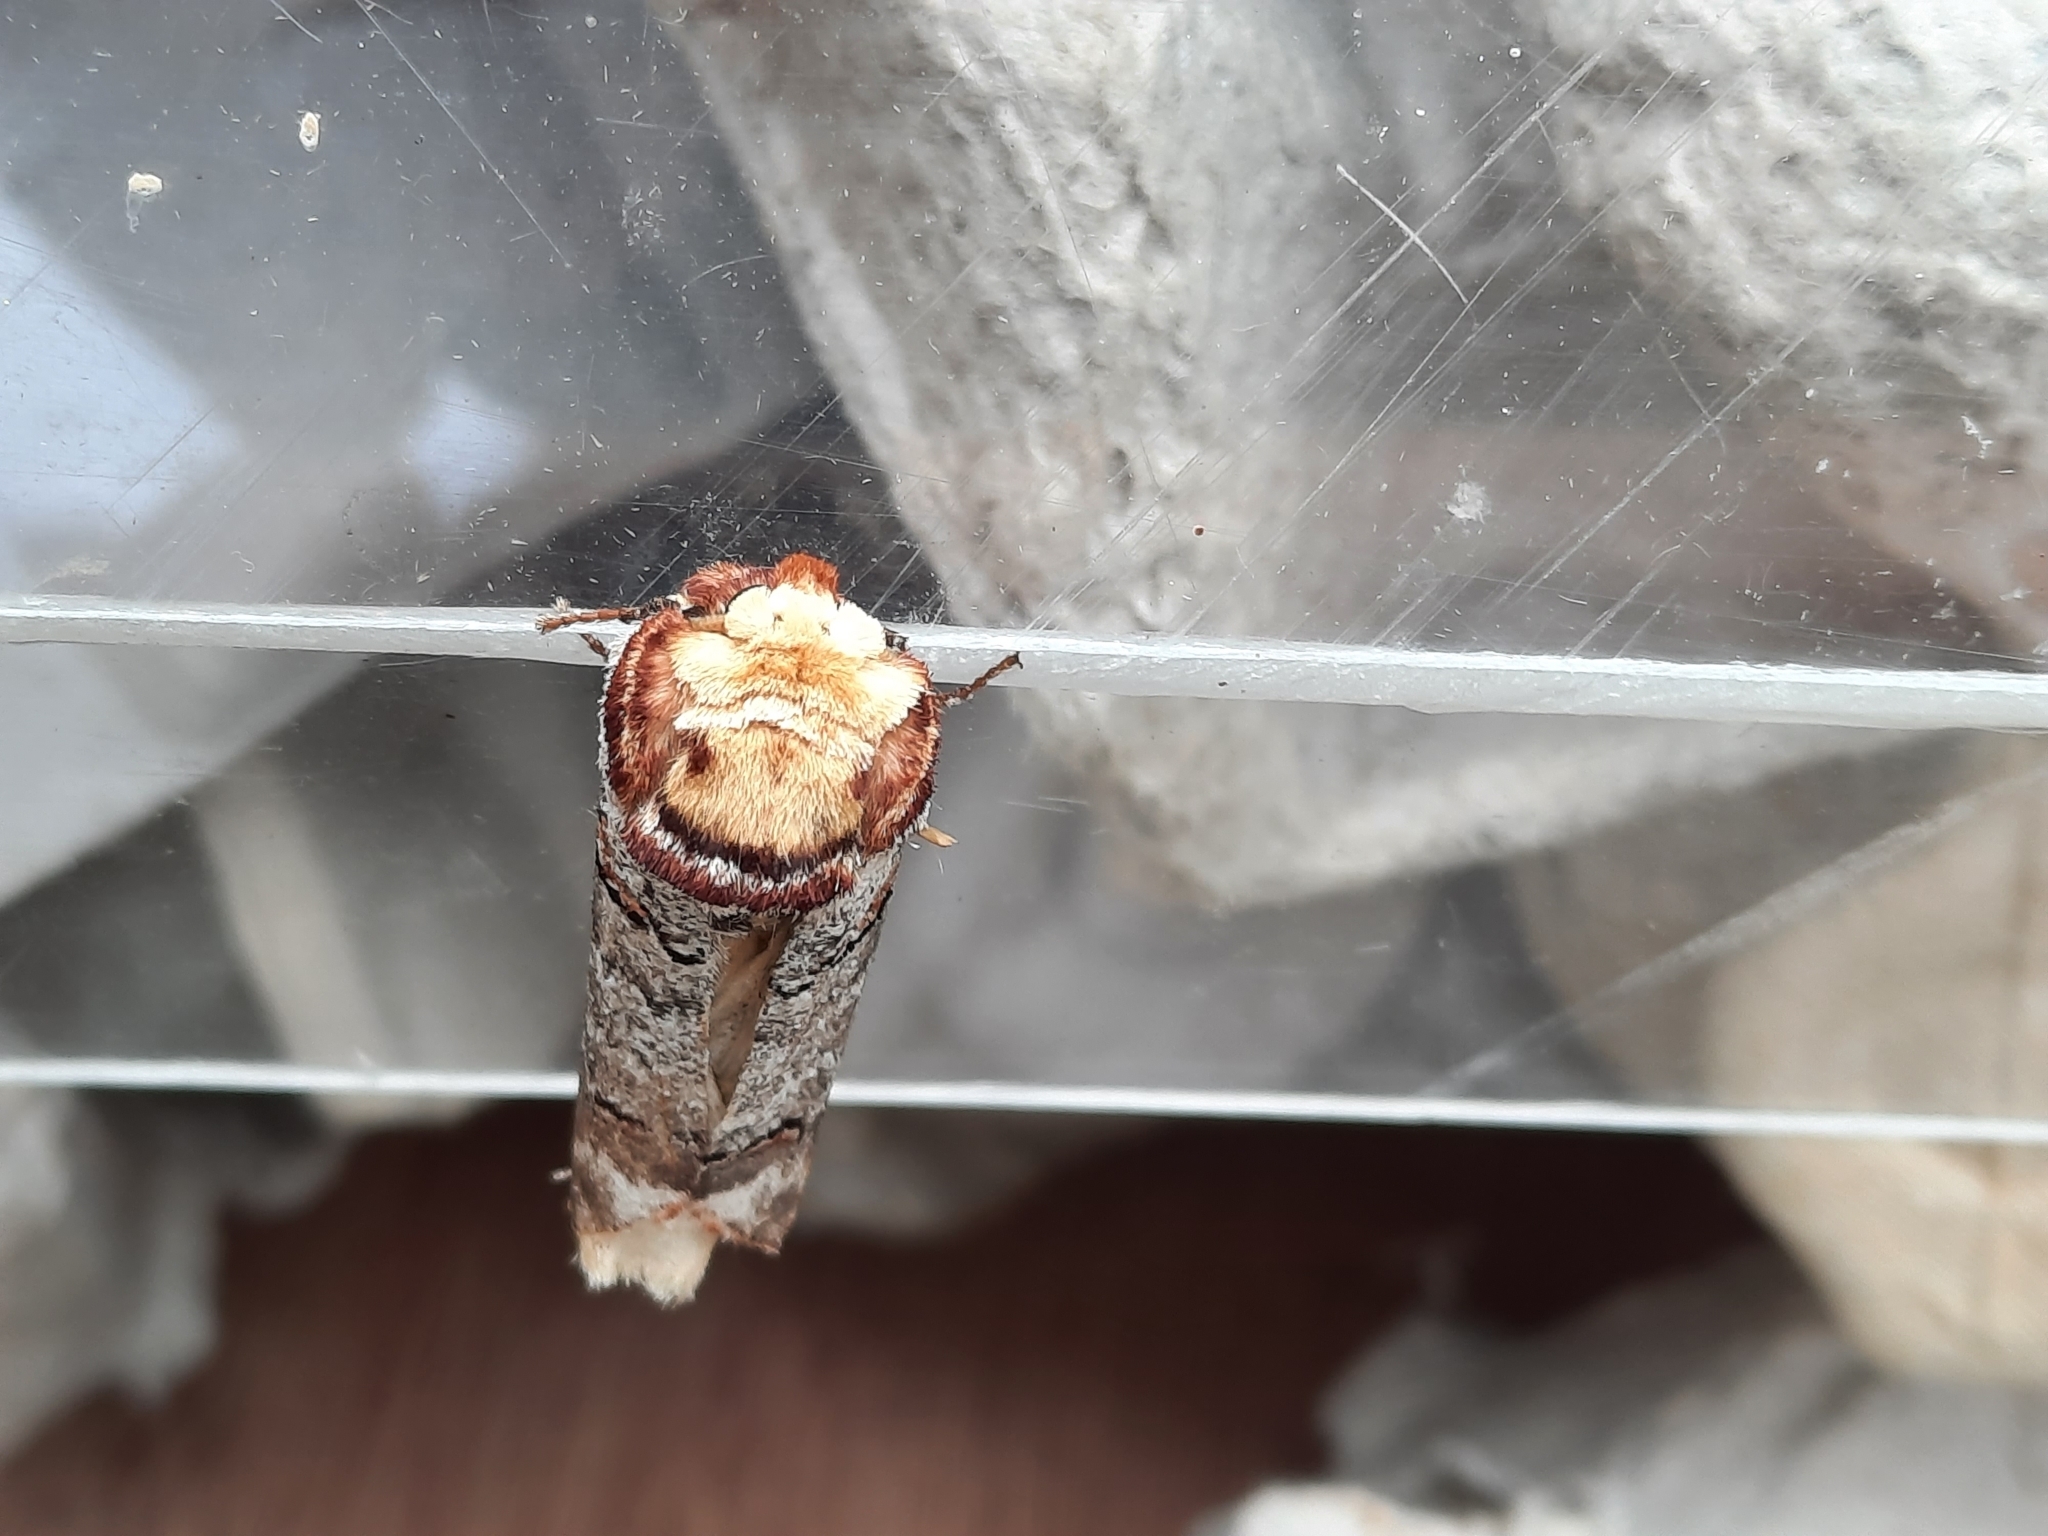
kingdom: Animalia
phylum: Arthropoda
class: Insecta
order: Lepidoptera
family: Notodontidae
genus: Phalera
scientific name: Phalera bucephala
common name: Buff-tip
